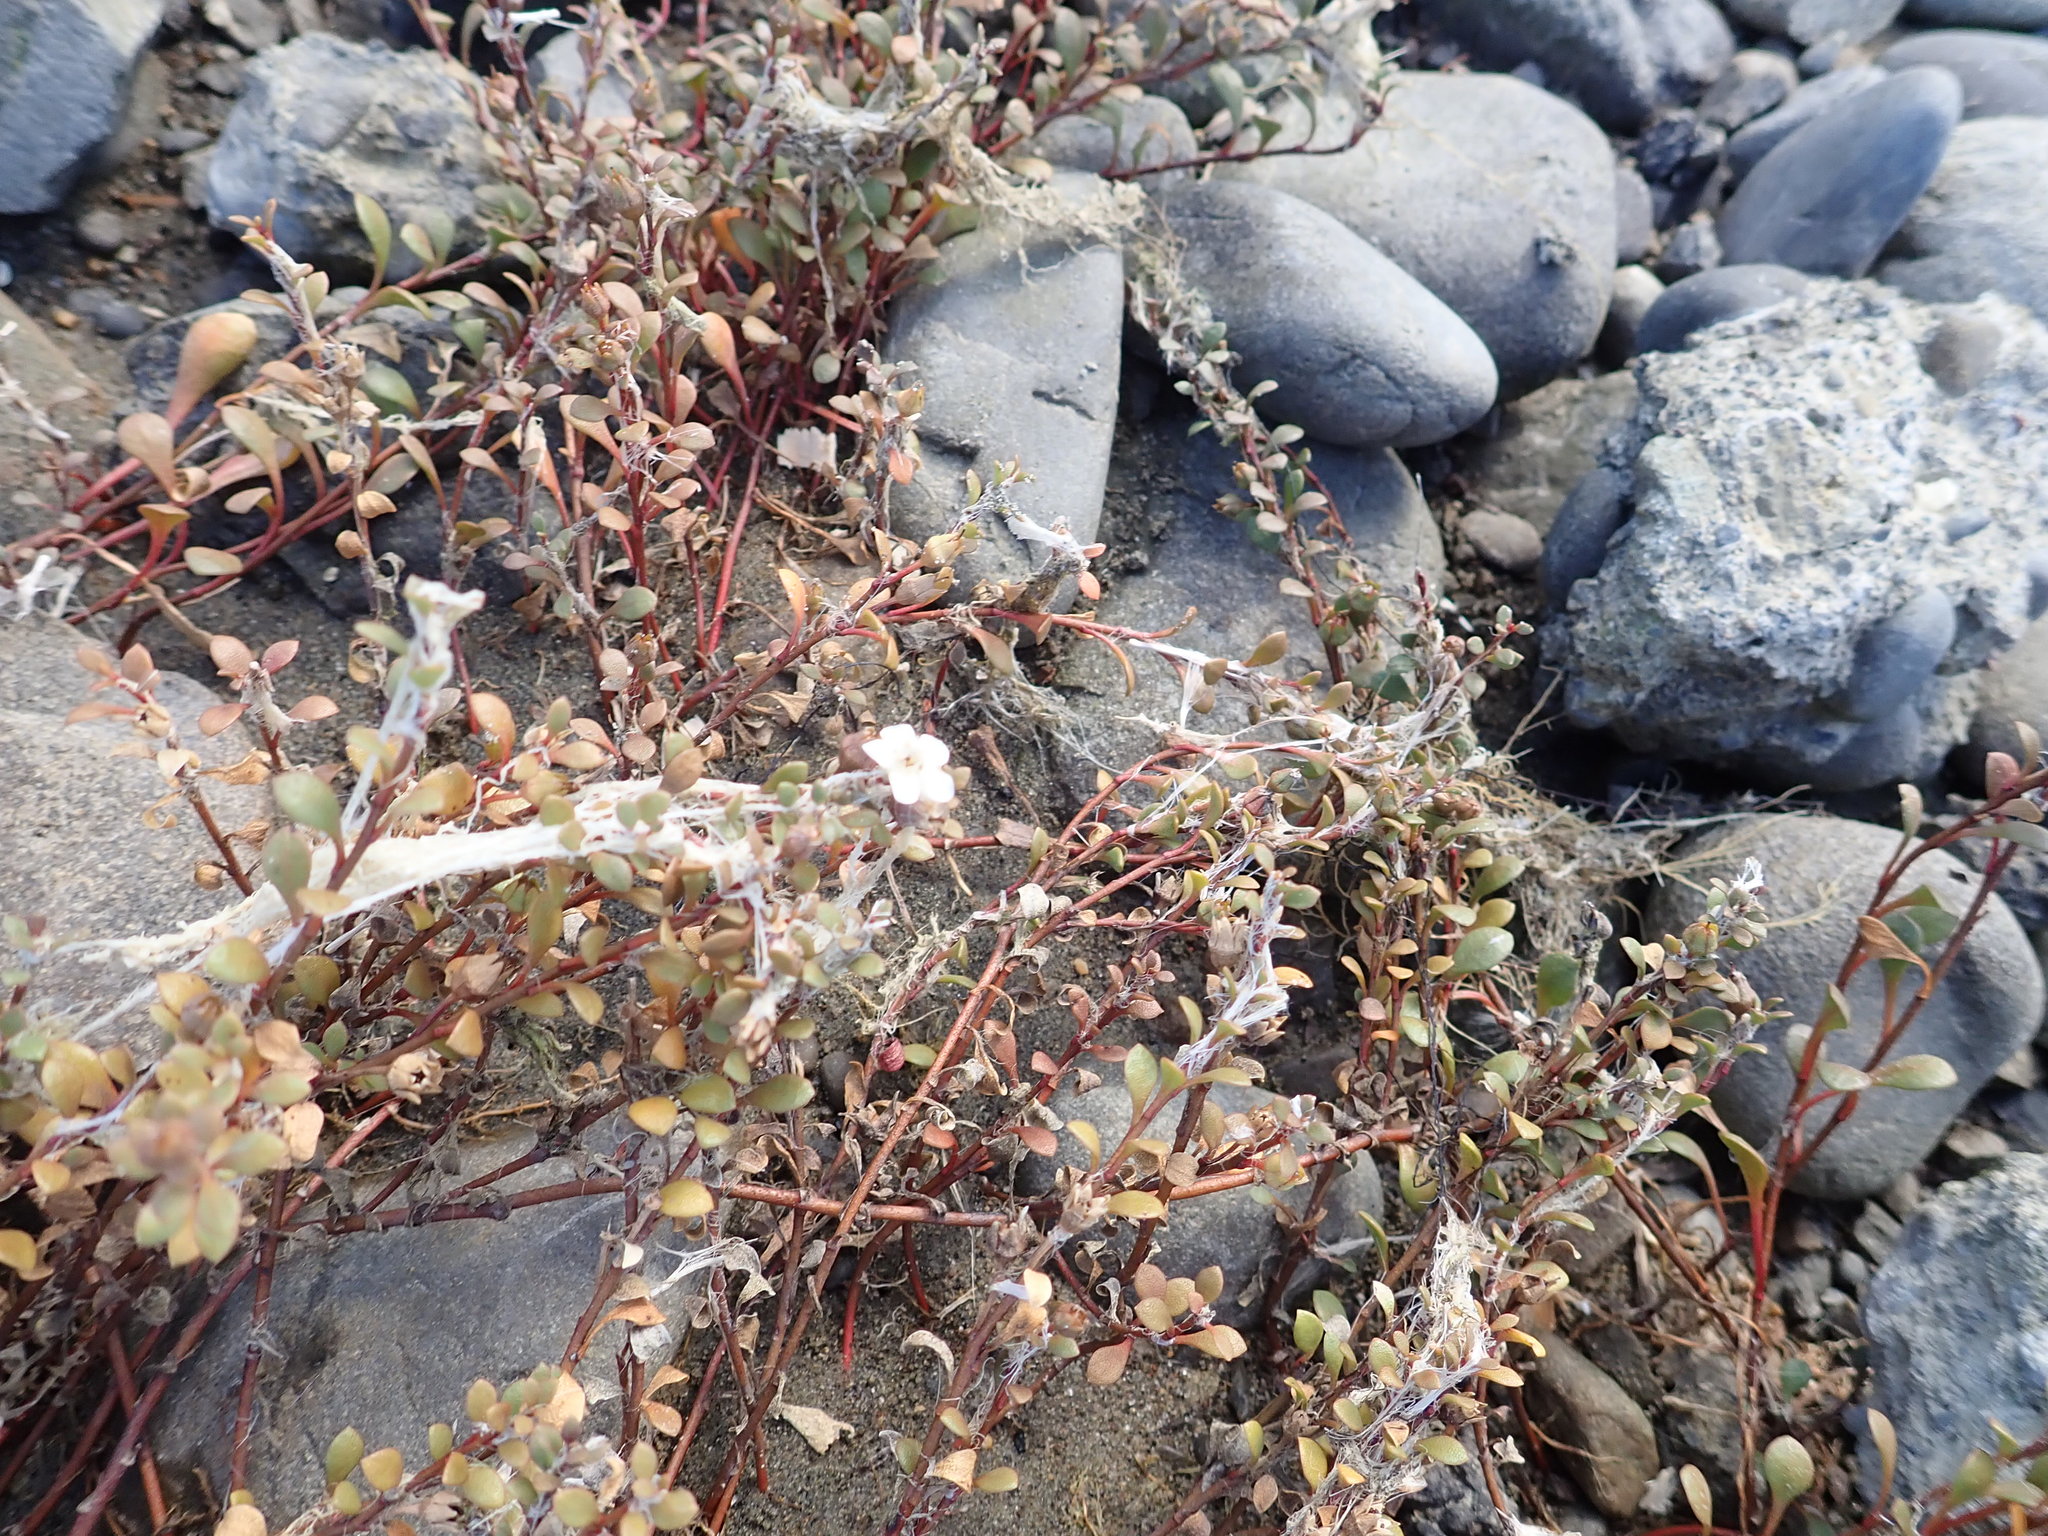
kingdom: Plantae
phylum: Tracheophyta
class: Magnoliopsida
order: Ericales
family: Primulaceae
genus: Samolus
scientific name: Samolus repens
